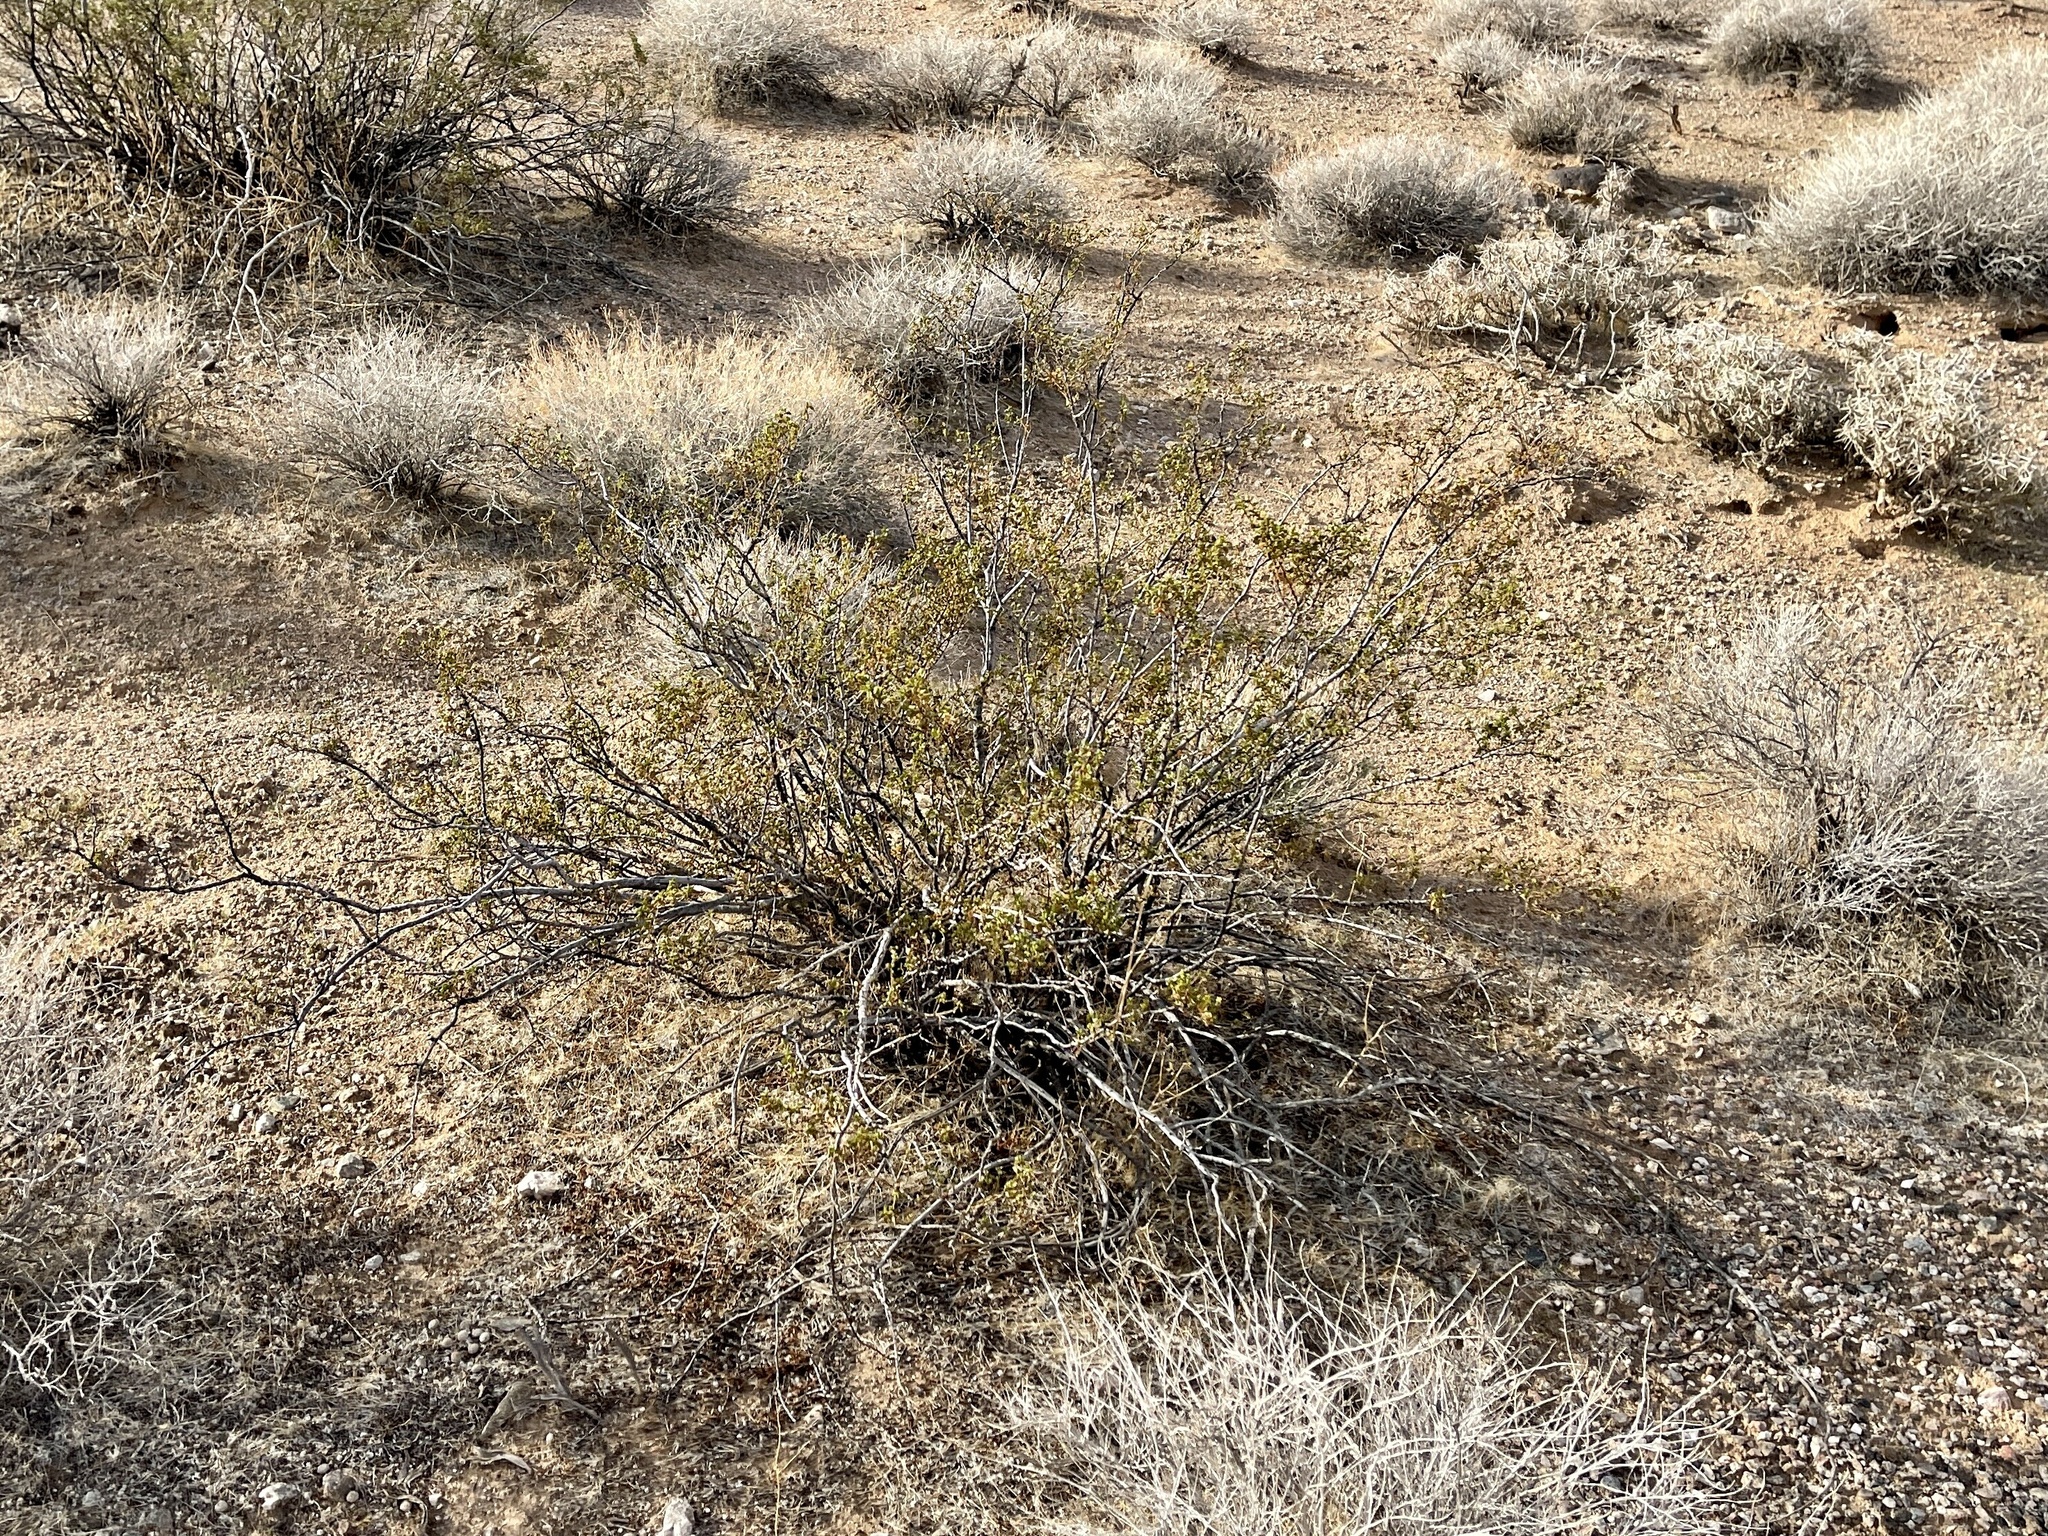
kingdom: Plantae
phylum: Tracheophyta
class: Magnoliopsida
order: Zygophyllales
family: Zygophyllaceae
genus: Larrea
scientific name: Larrea tridentata
